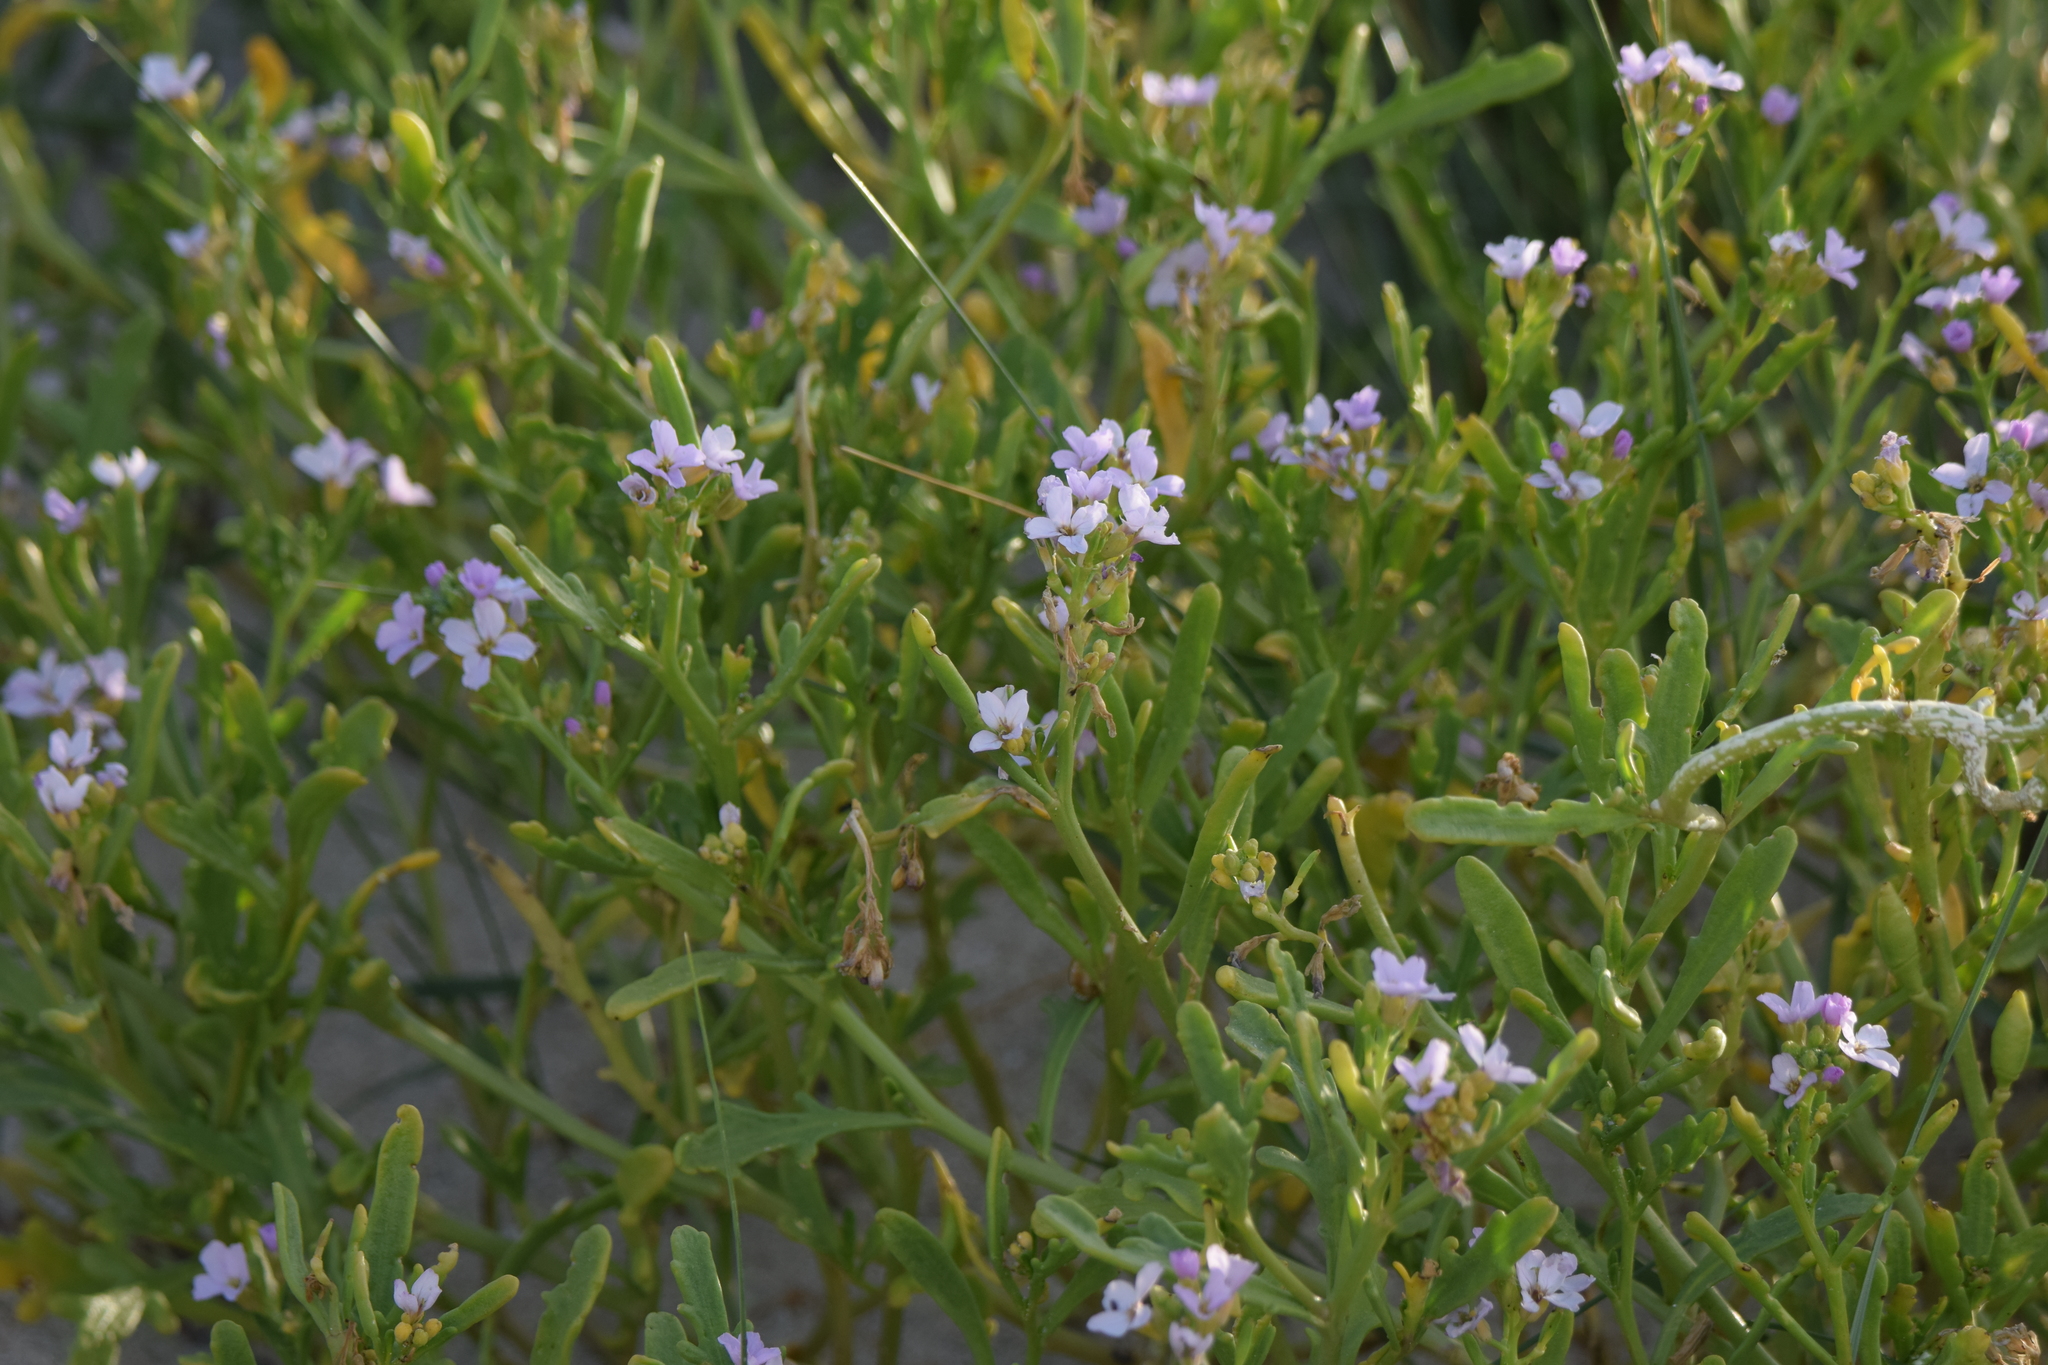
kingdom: Plantae
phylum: Tracheophyta
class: Magnoliopsida
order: Brassicales
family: Brassicaceae
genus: Cakile
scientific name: Cakile maritima
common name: Sea rocket
